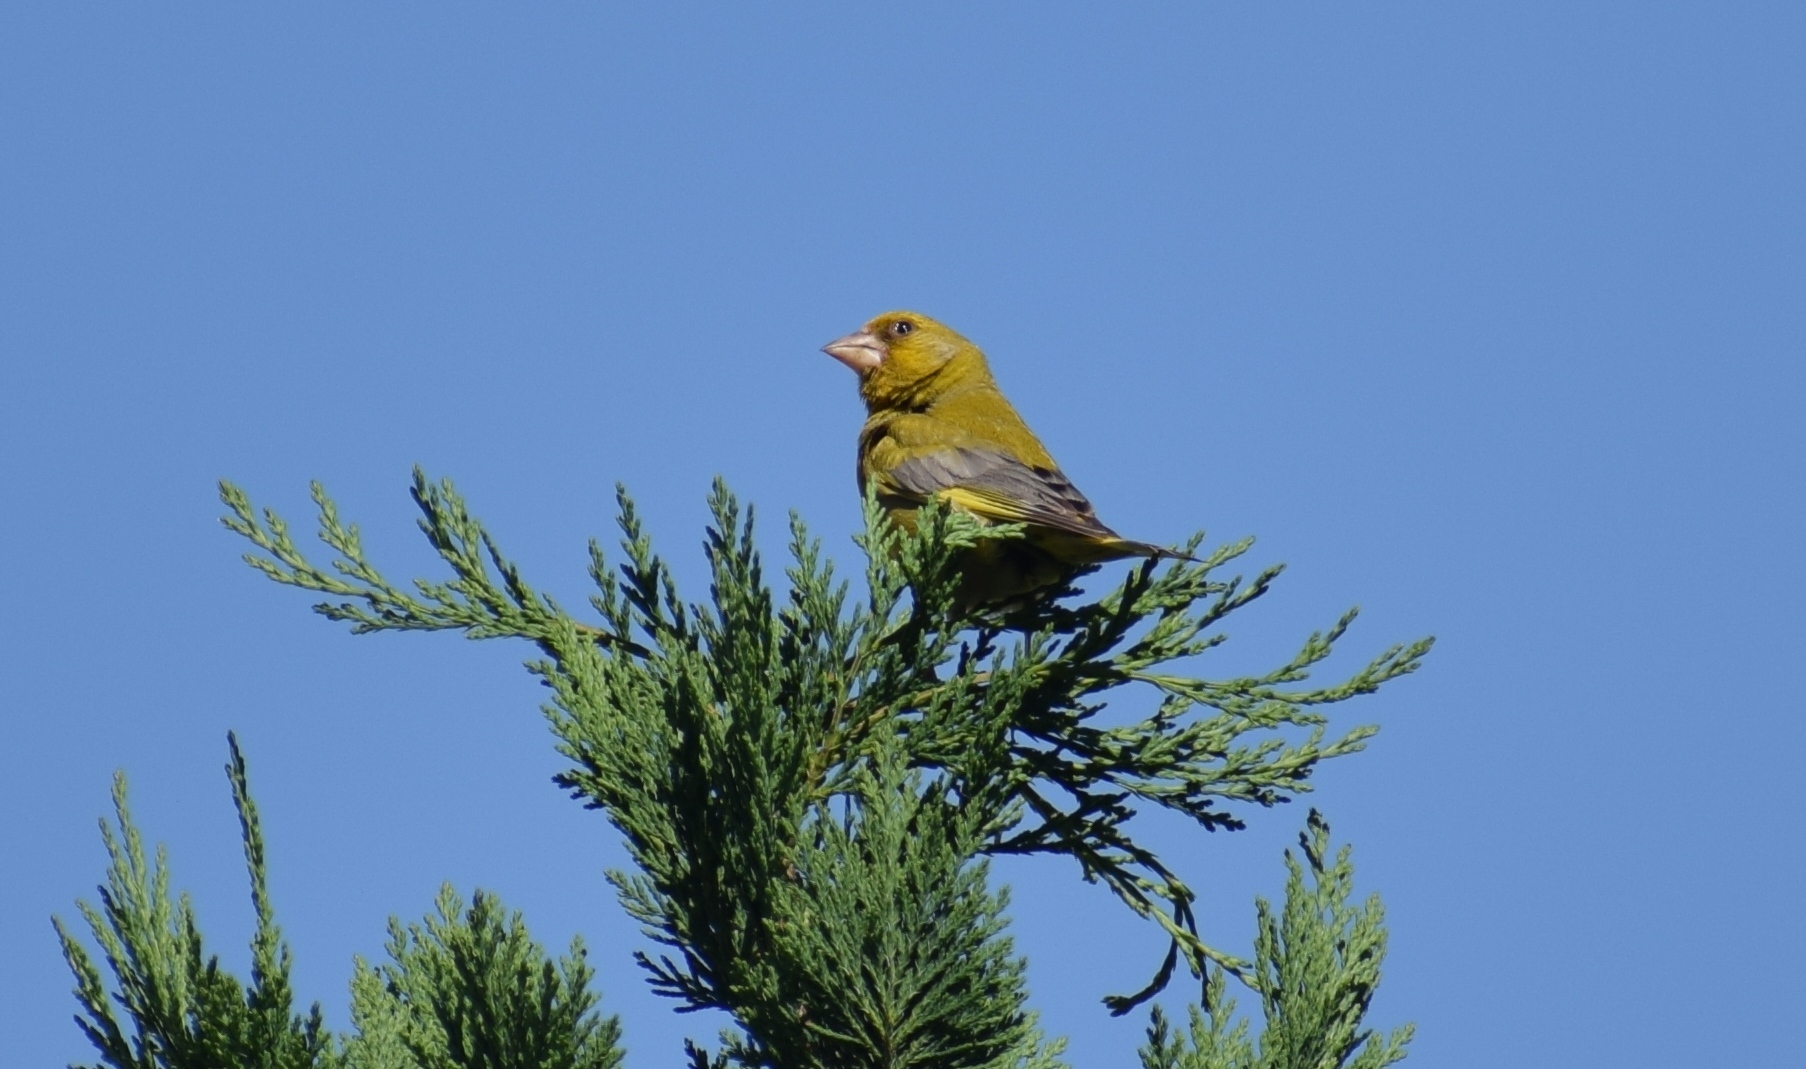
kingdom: Plantae
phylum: Tracheophyta
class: Liliopsida
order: Poales
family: Poaceae
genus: Chloris
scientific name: Chloris chloris
